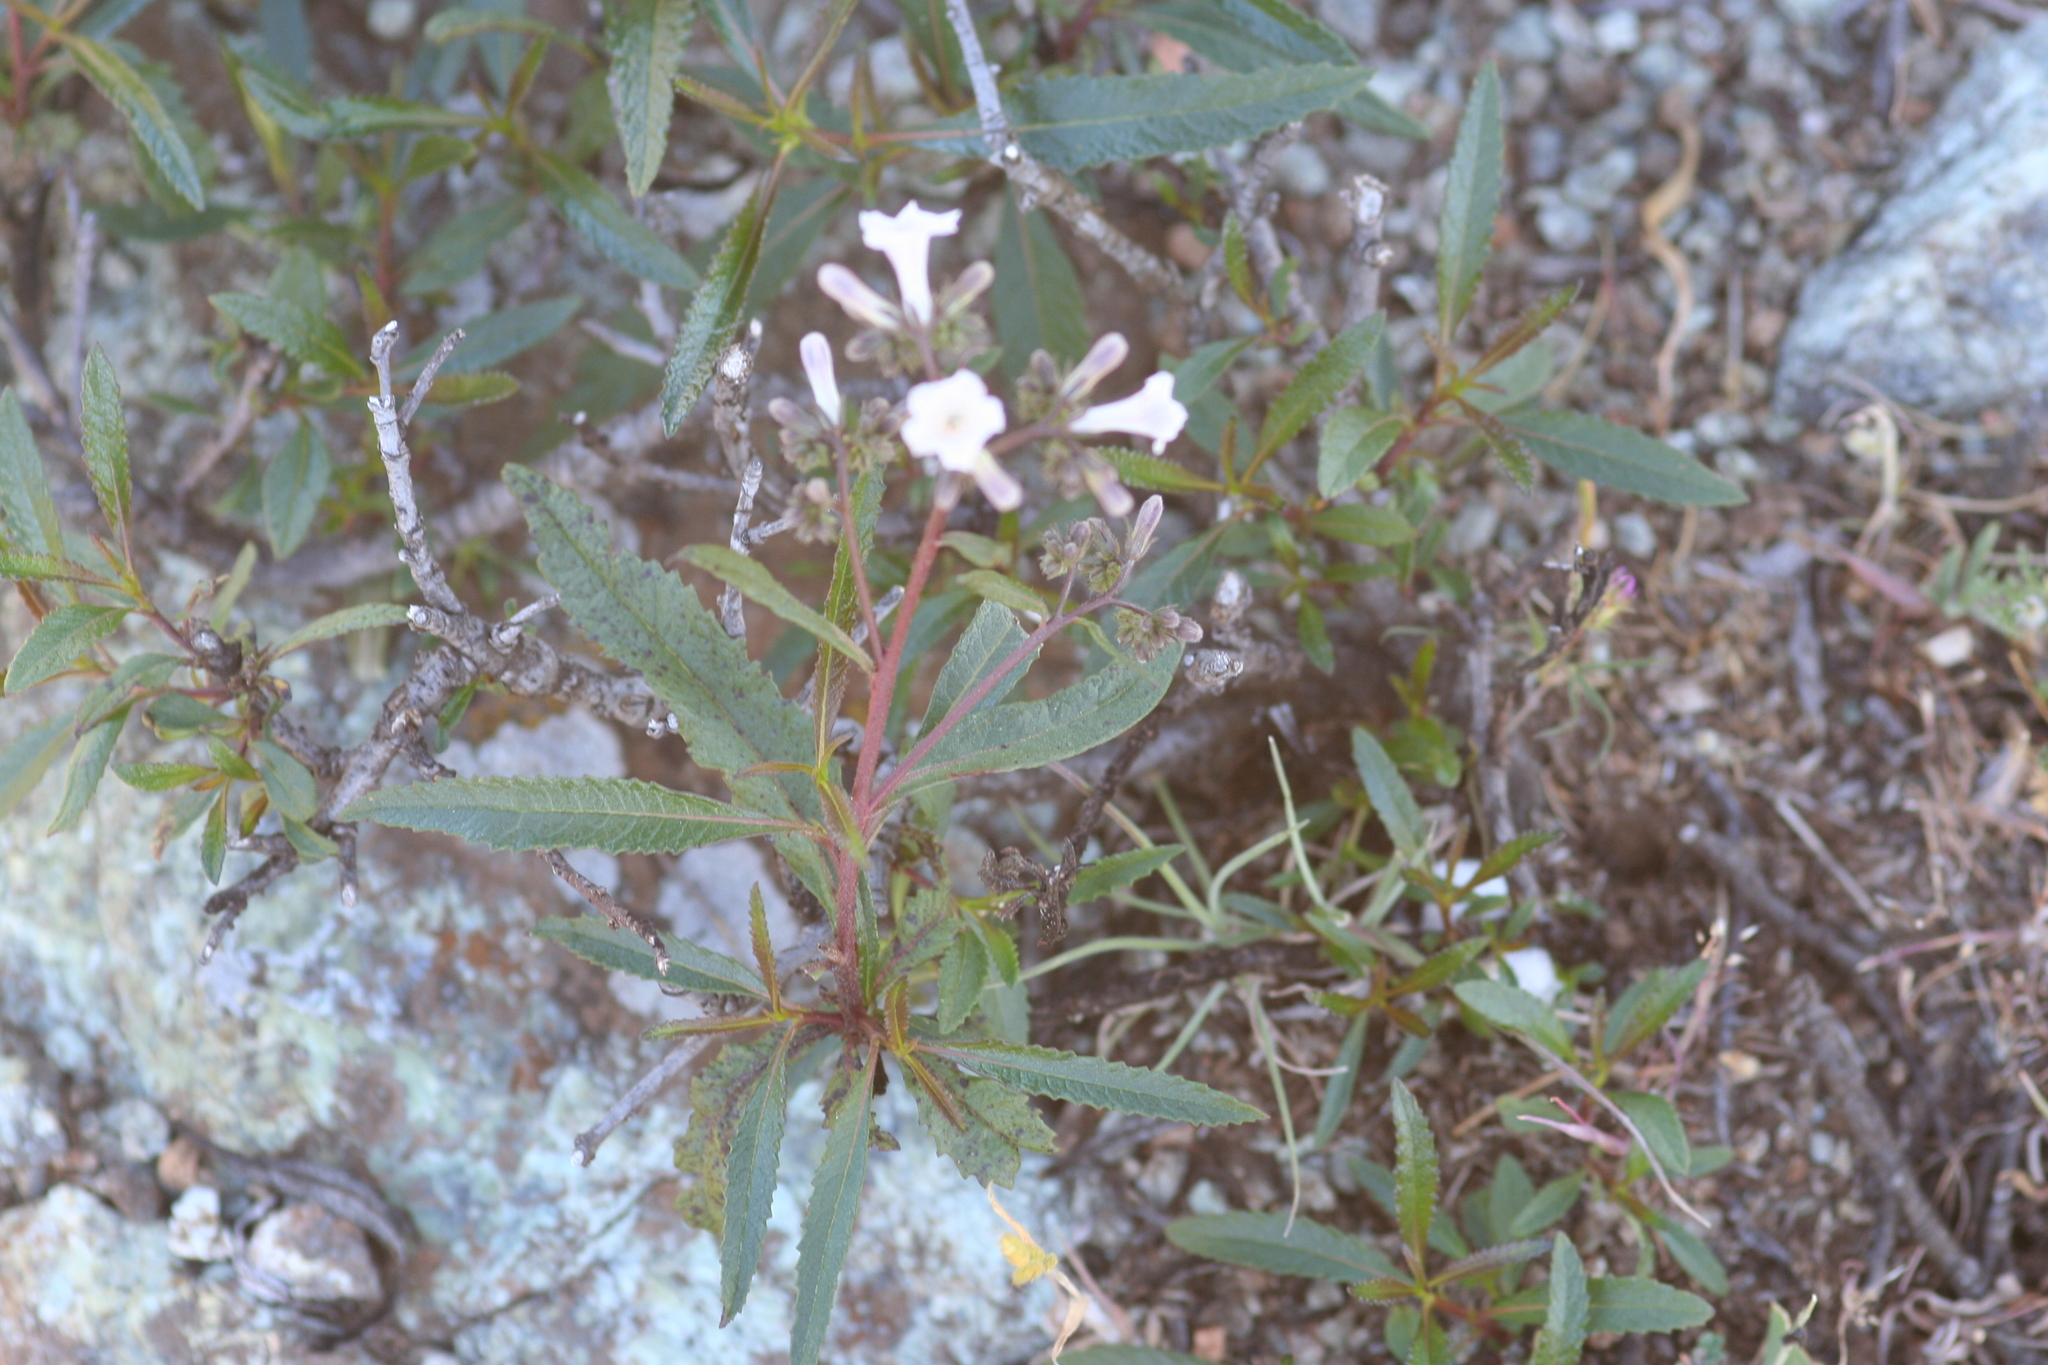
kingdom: Plantae
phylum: Tracheophyta
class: Magnoliopsida
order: Boraginales
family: Namaceae
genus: Eriodictyon
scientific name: Eriodictyon californicum
